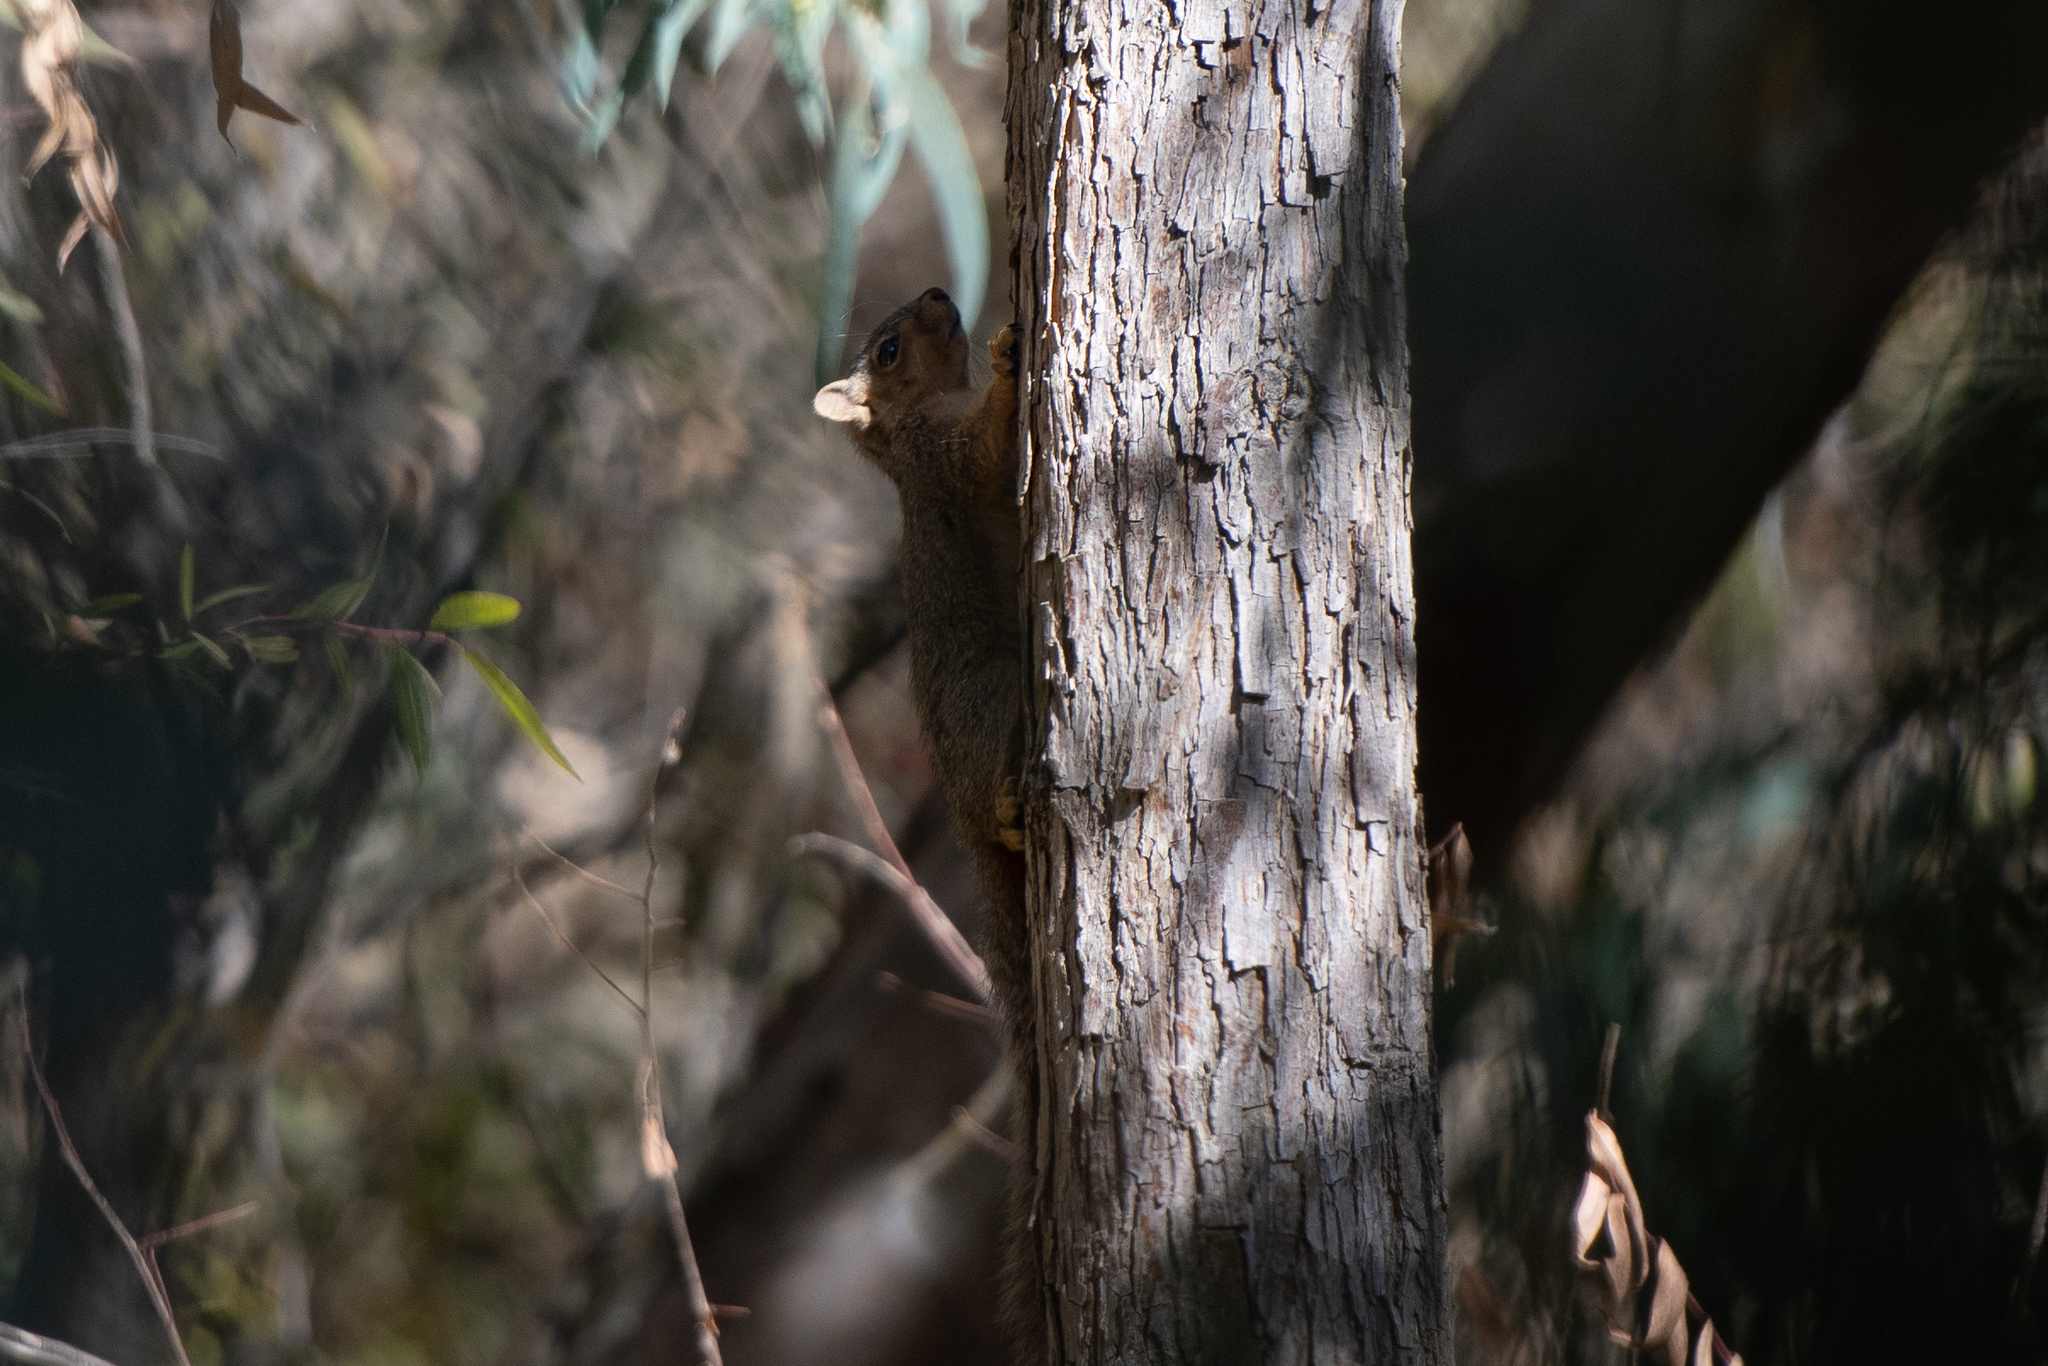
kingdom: Animalia
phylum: Chordata
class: Mammalia
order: Rodentia
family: Sciuridae
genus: Sciurus
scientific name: Sciurus niger
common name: Fox squirrel
